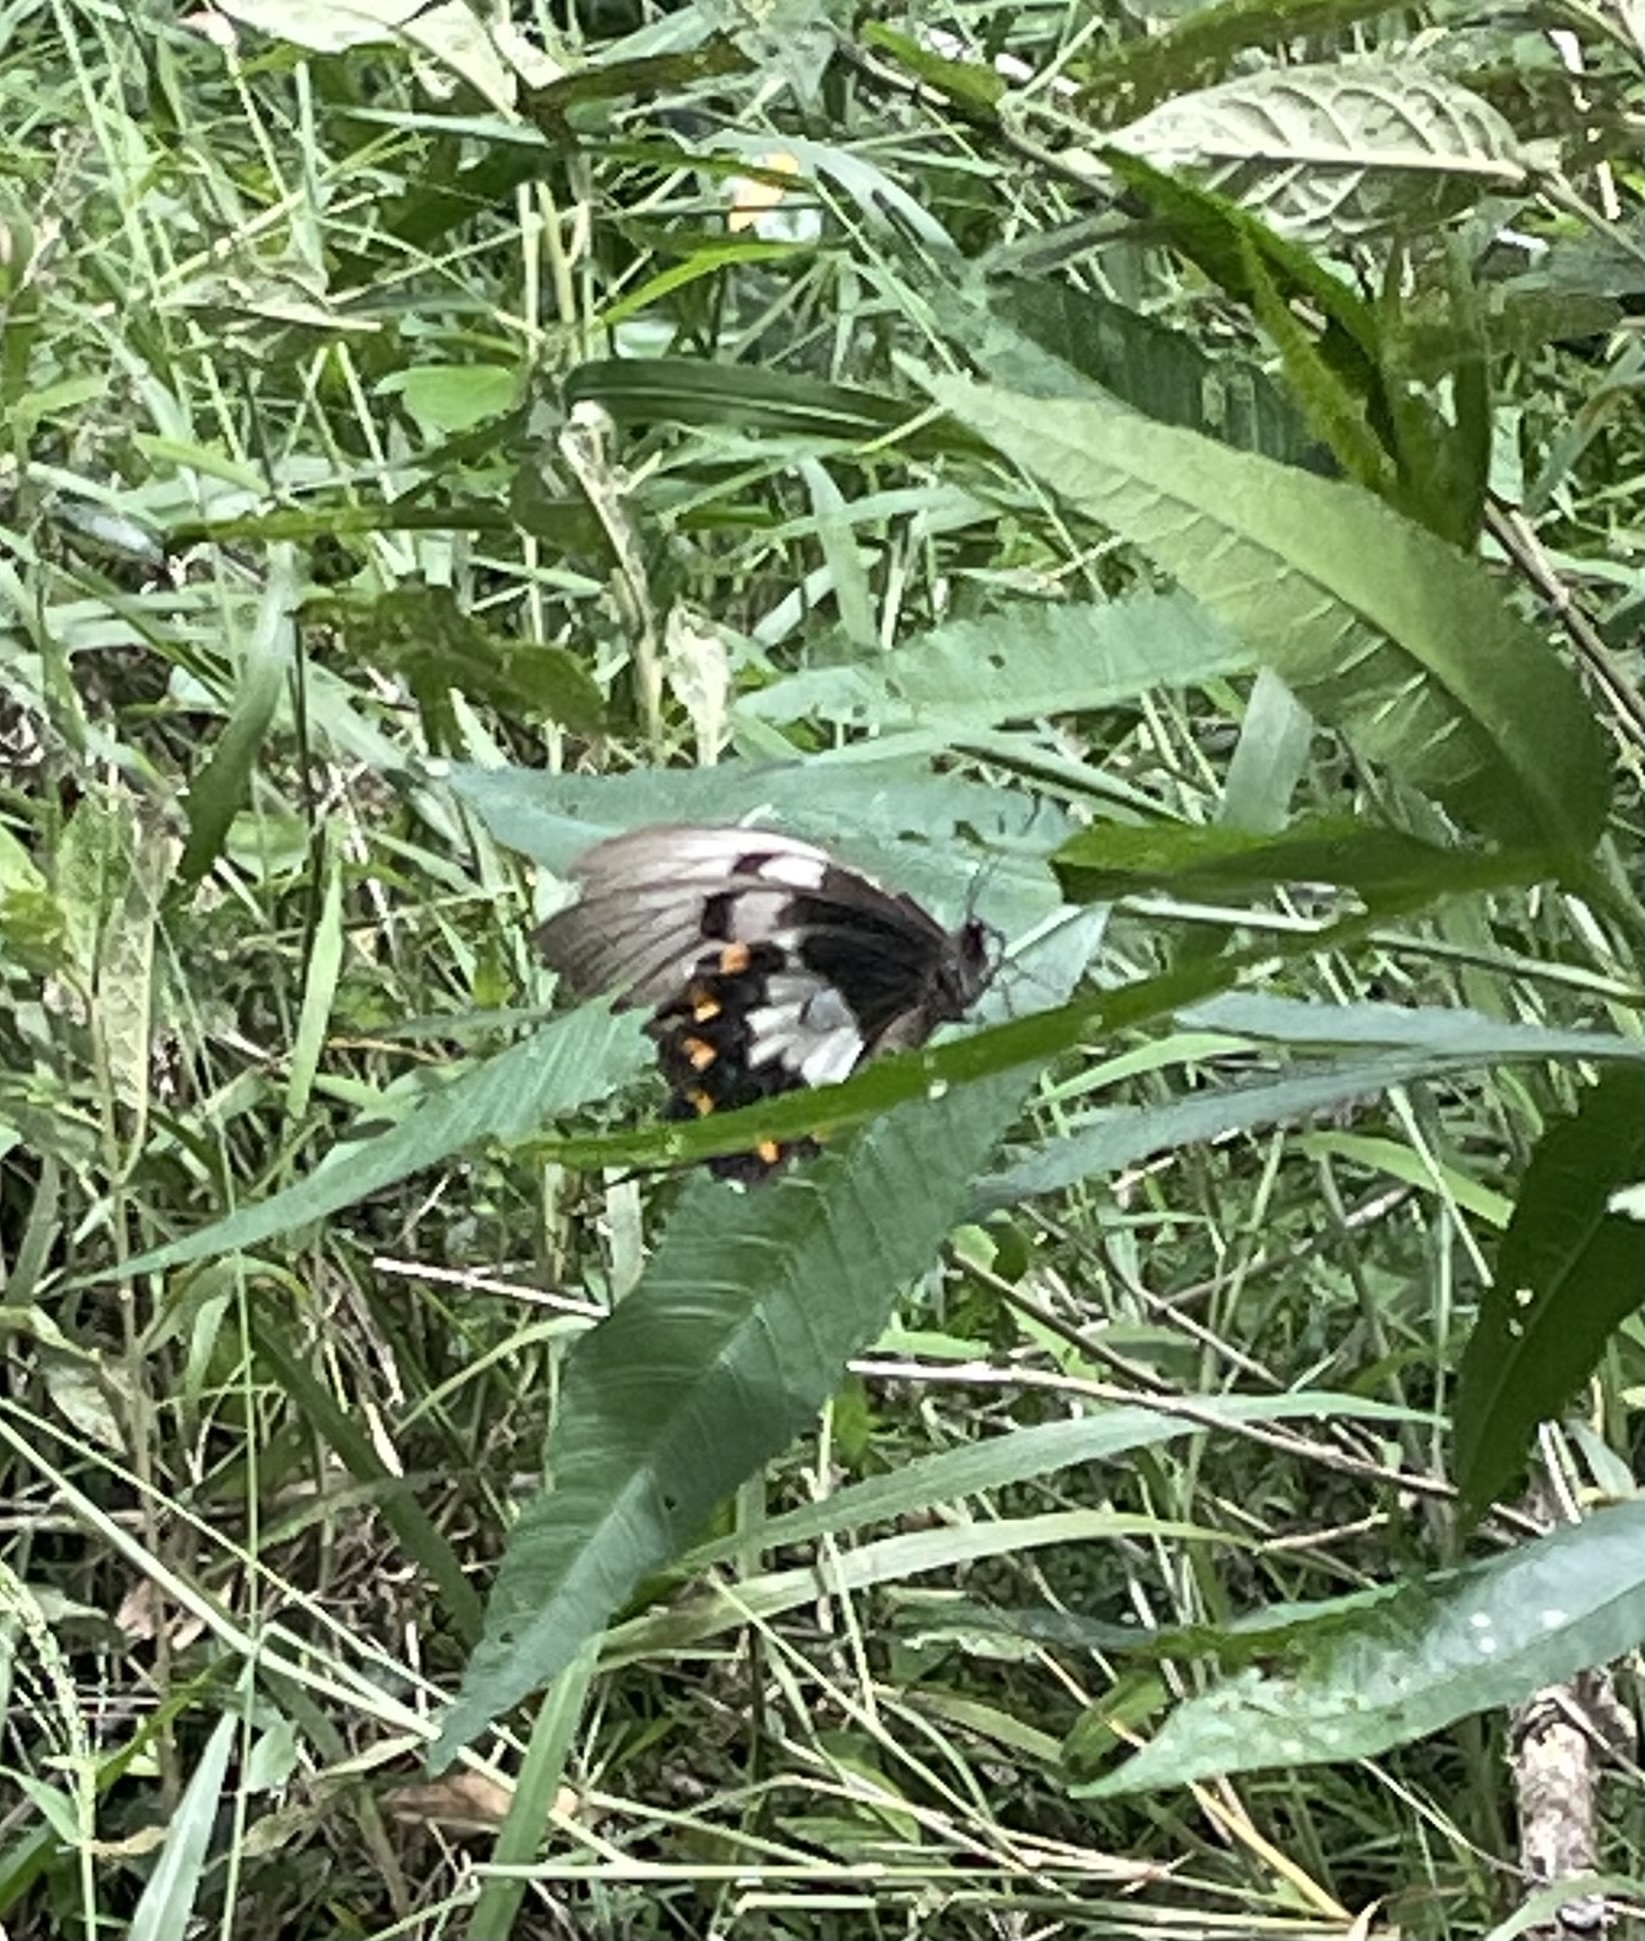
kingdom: Animalia
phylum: Arthropoda
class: Insecta
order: Lepidoptera
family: Papilionidae
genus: Papilio
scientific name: Papilio aegeus
